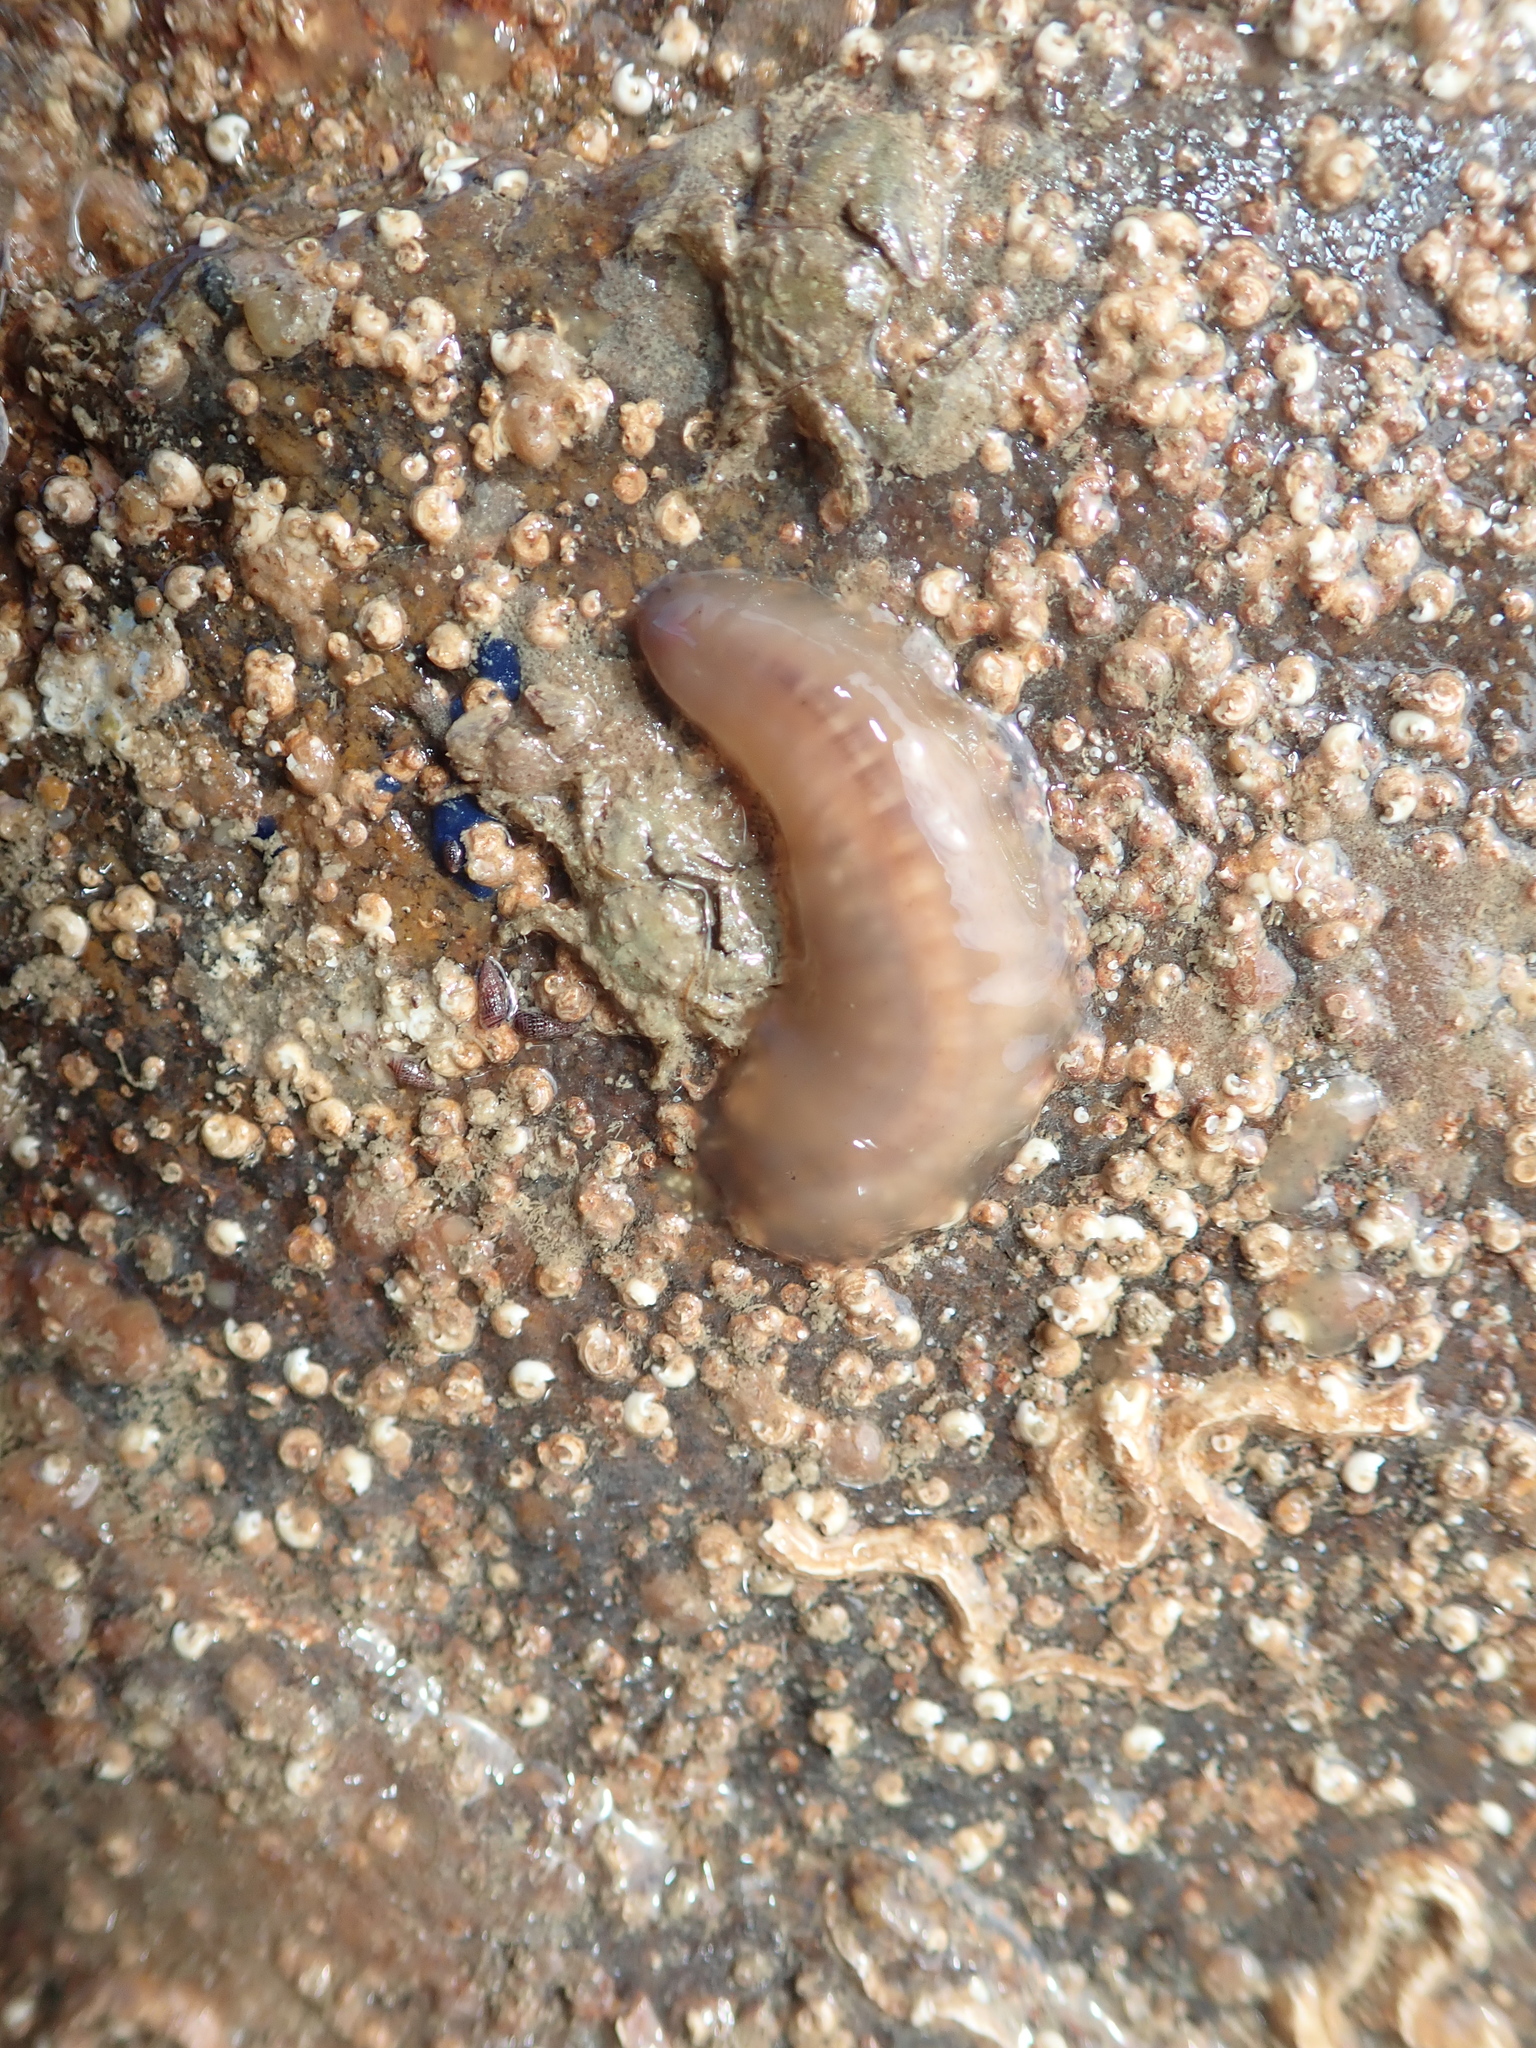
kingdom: Animalia
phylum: Annelida
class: Polychaeta
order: Phyllodocida
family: Polynoidae
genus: Alentia
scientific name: Alentia gelatinosa
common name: Gelatinous scale worm
